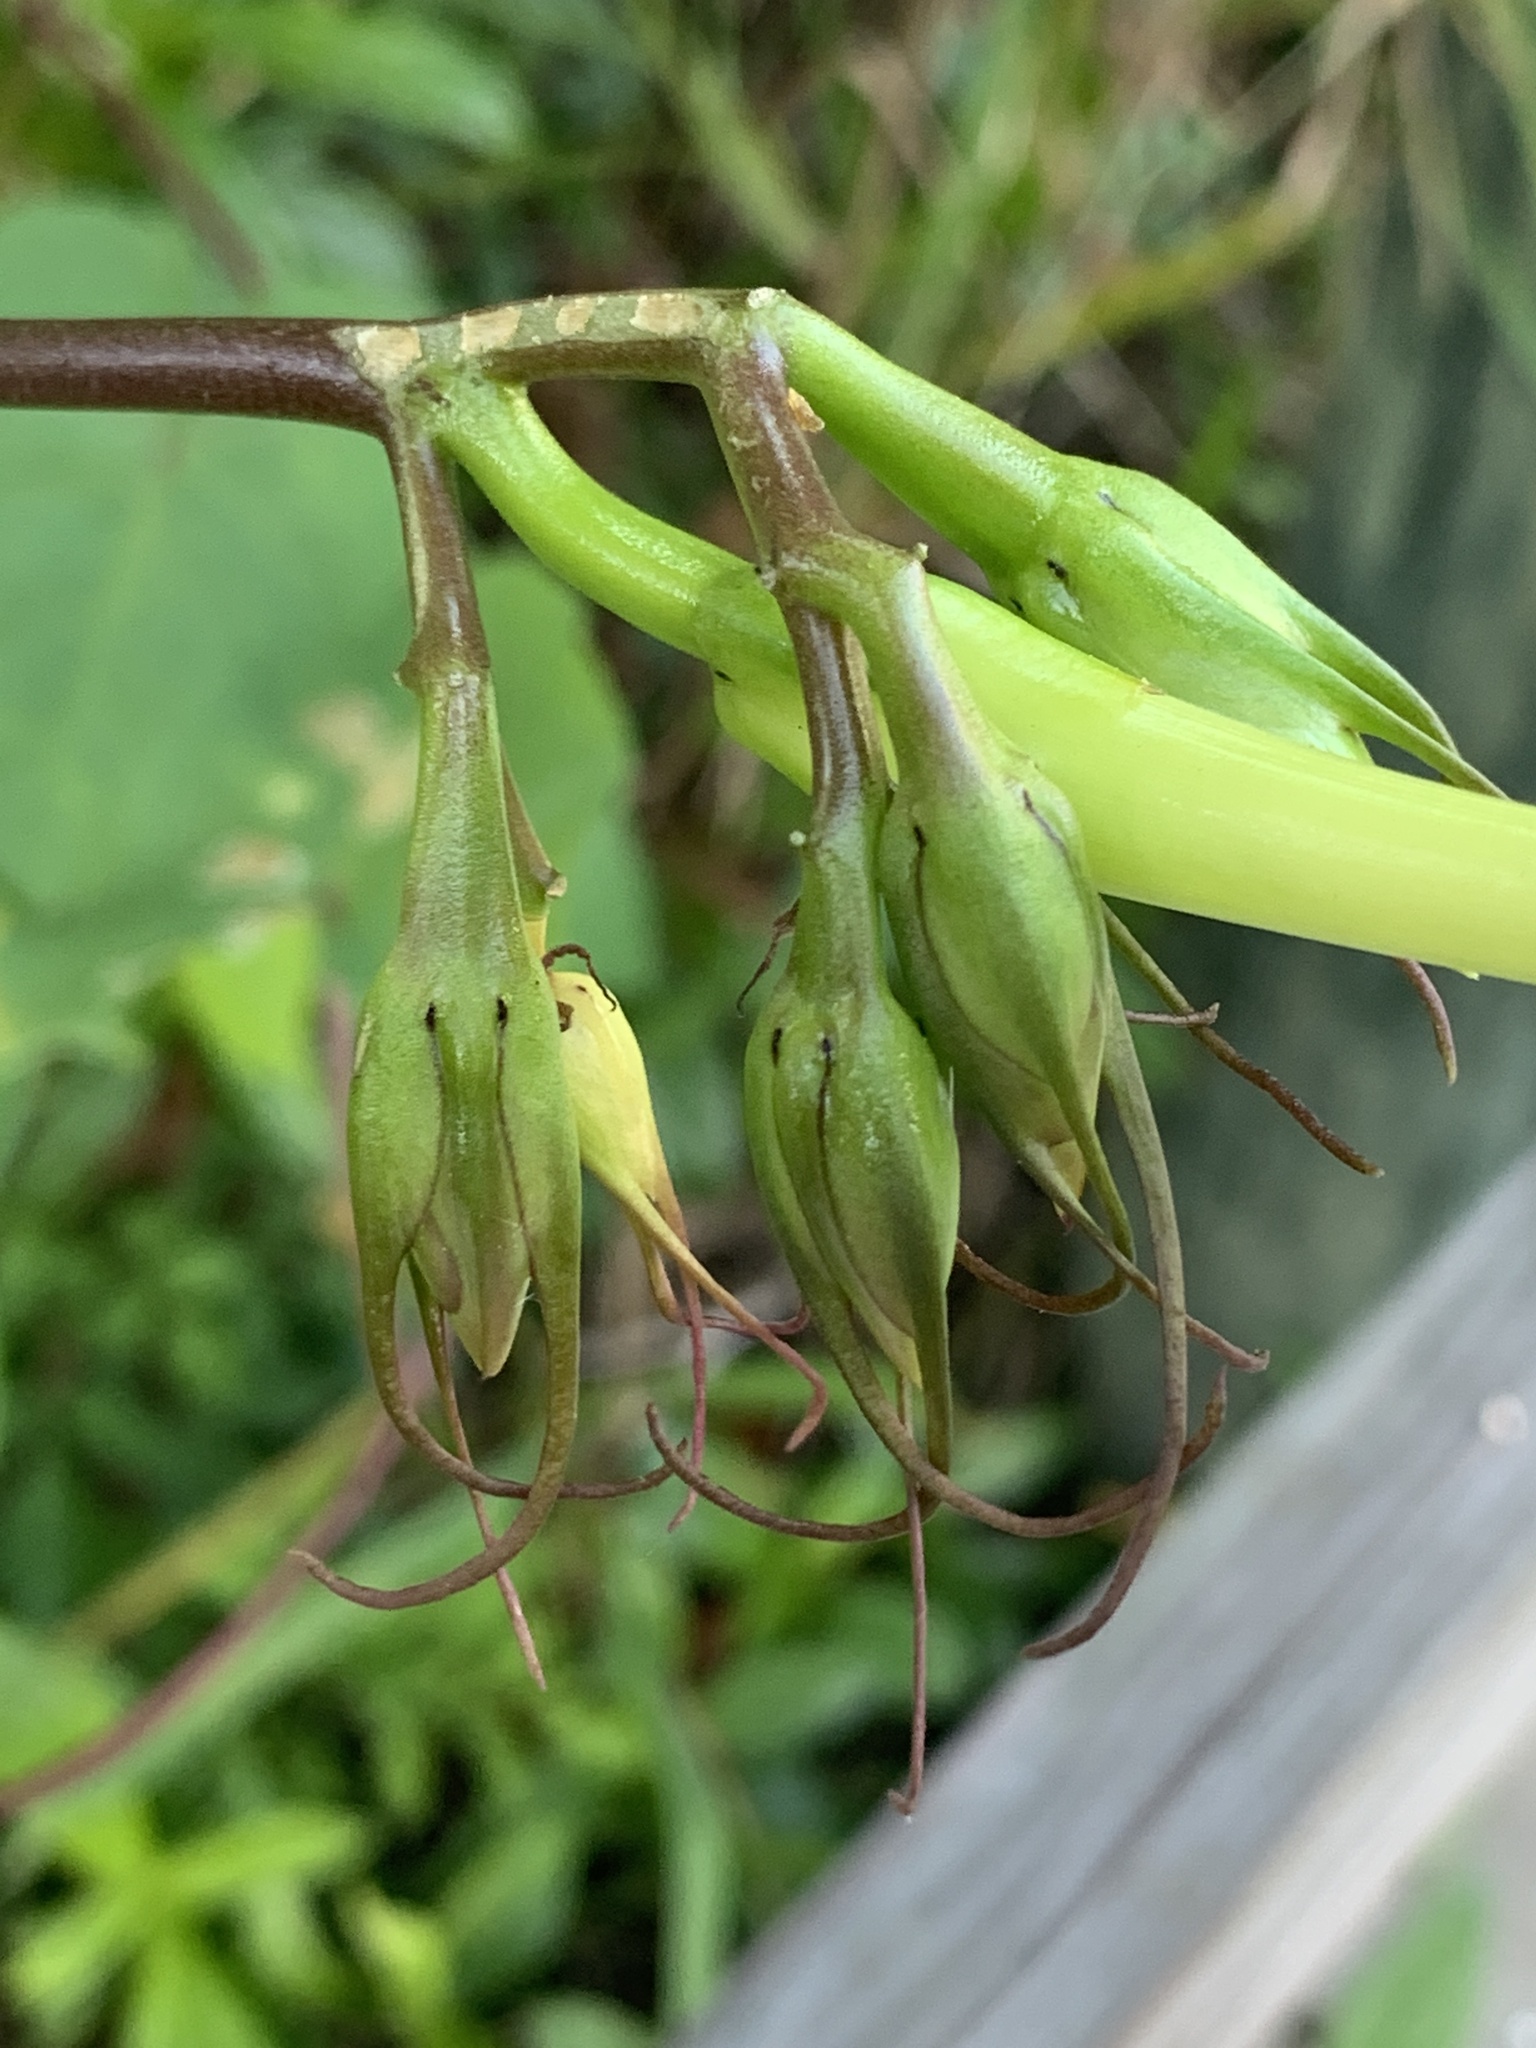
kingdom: Plantae
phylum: Tracheophyta
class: Magnoliopsida
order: Solanales
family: Convolvulaceae
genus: Ipomoea
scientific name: Ipomoea alba
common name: Moonflower
